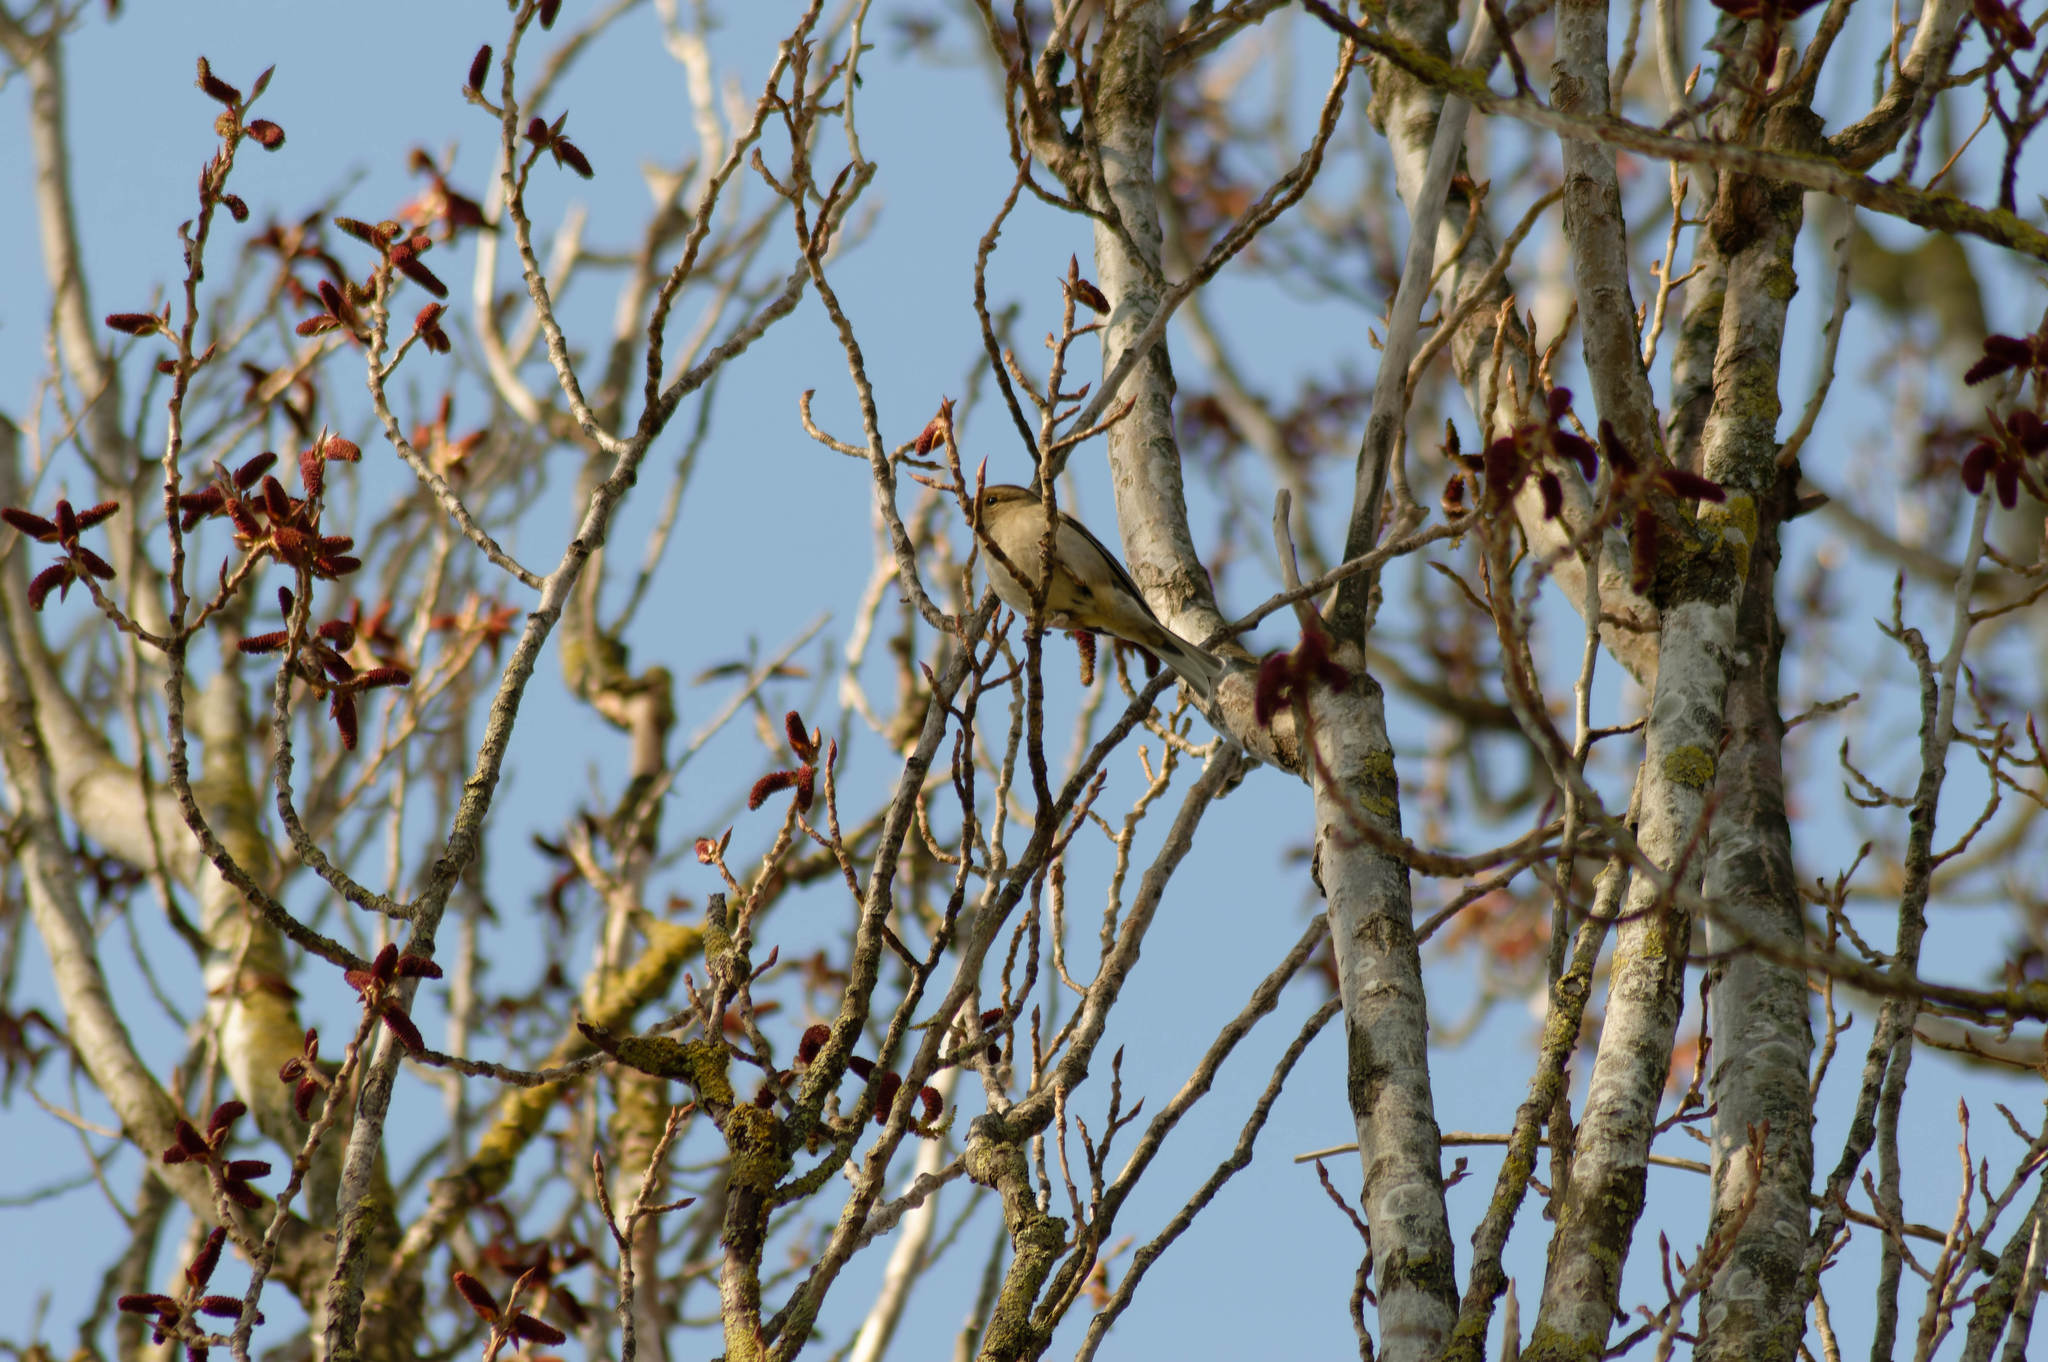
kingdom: Animalia
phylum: Chordata
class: Aves
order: Passeriformes
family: Fringillidae
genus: Fringilla
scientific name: Fringilla coelebs
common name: Common chaffinch
